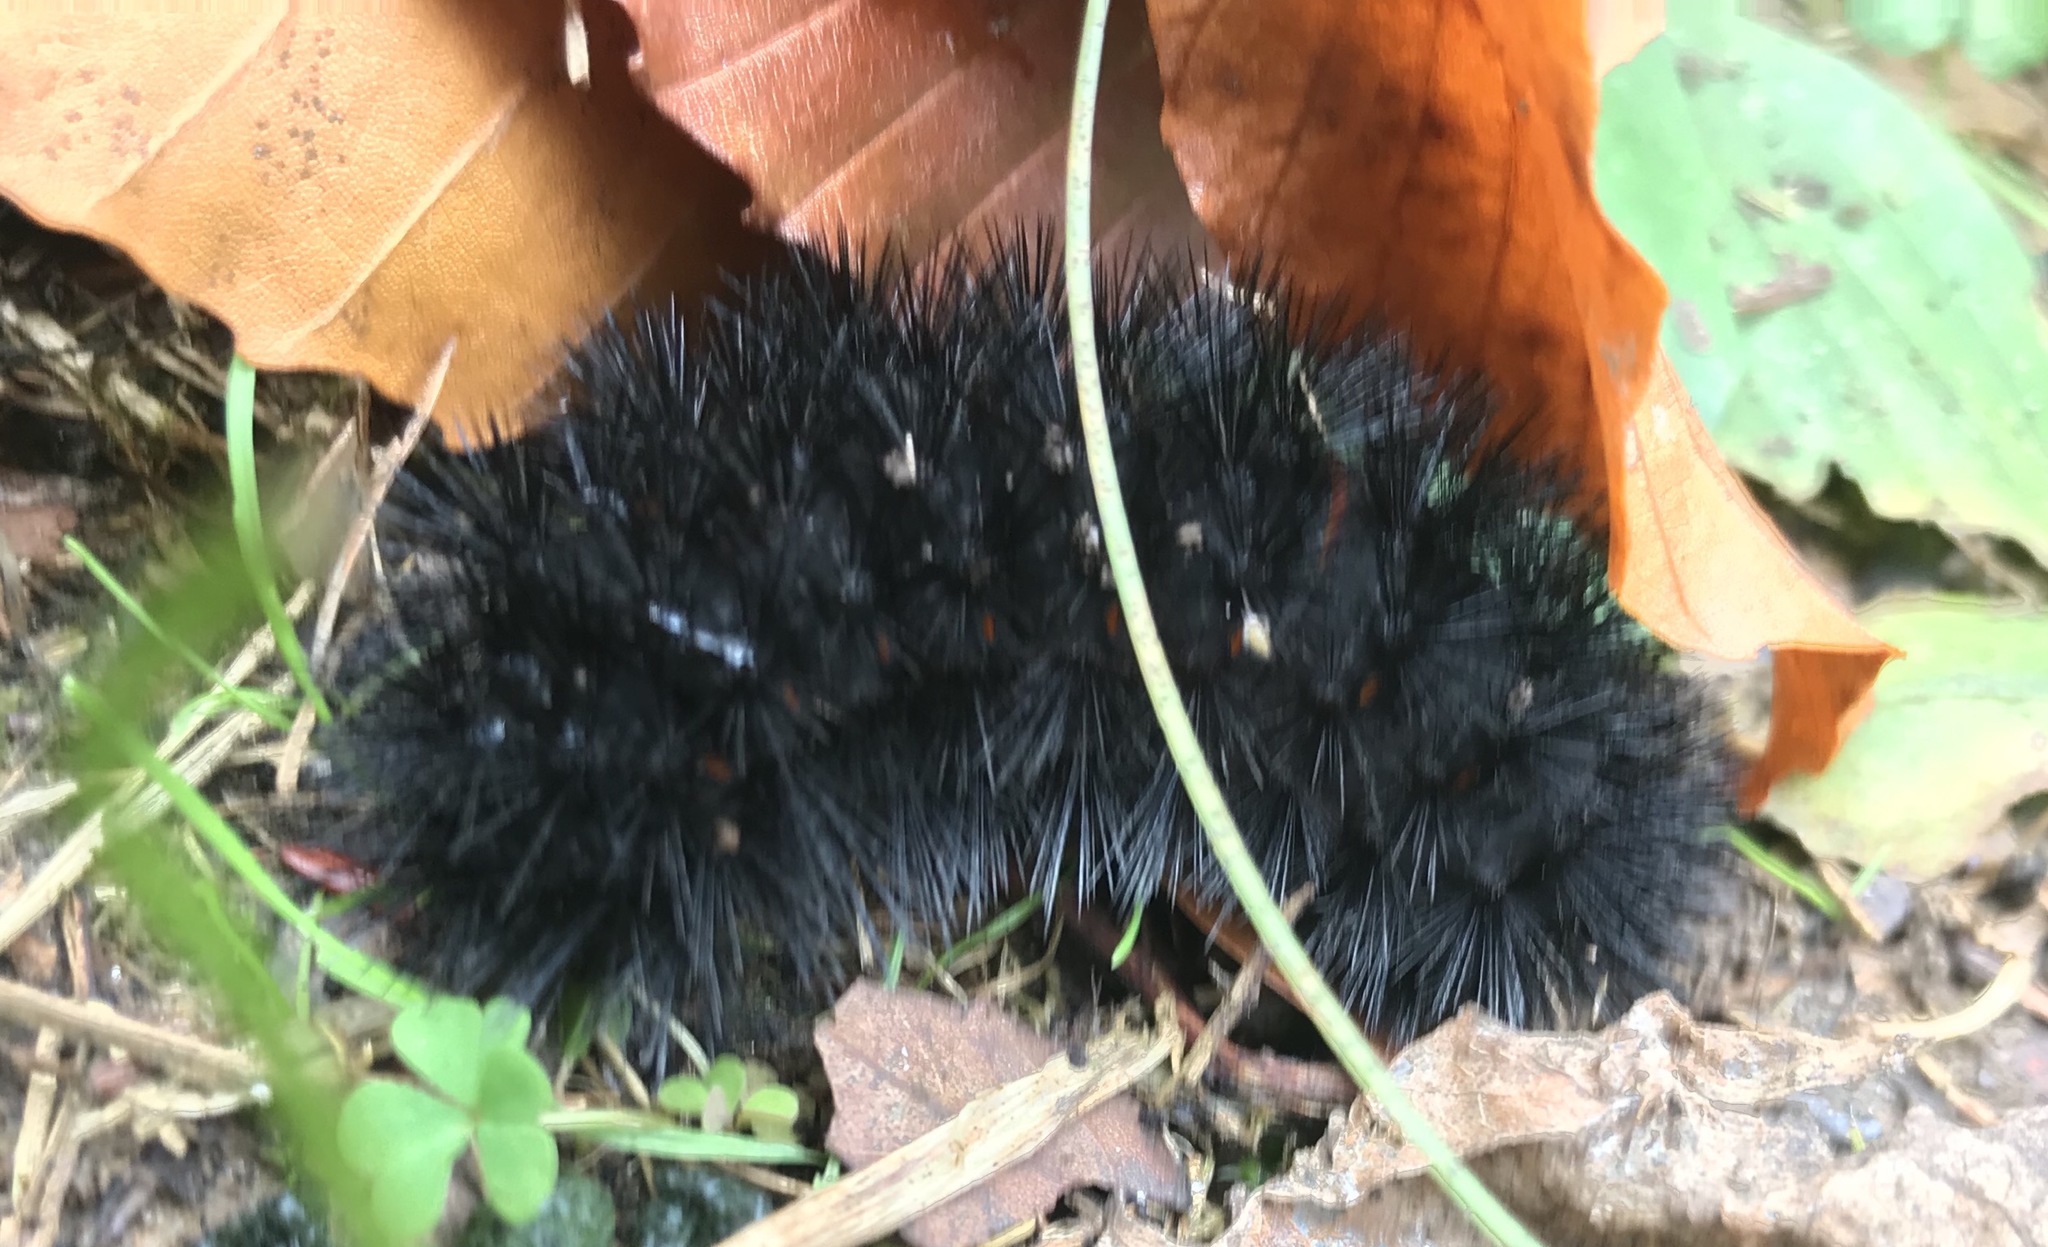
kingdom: Animalia
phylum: Arthropoda
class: Insecta
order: Lepidoptera
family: Erebidae
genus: Hypercompe
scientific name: Hypercompe scribonia
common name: Giant leopard moth
